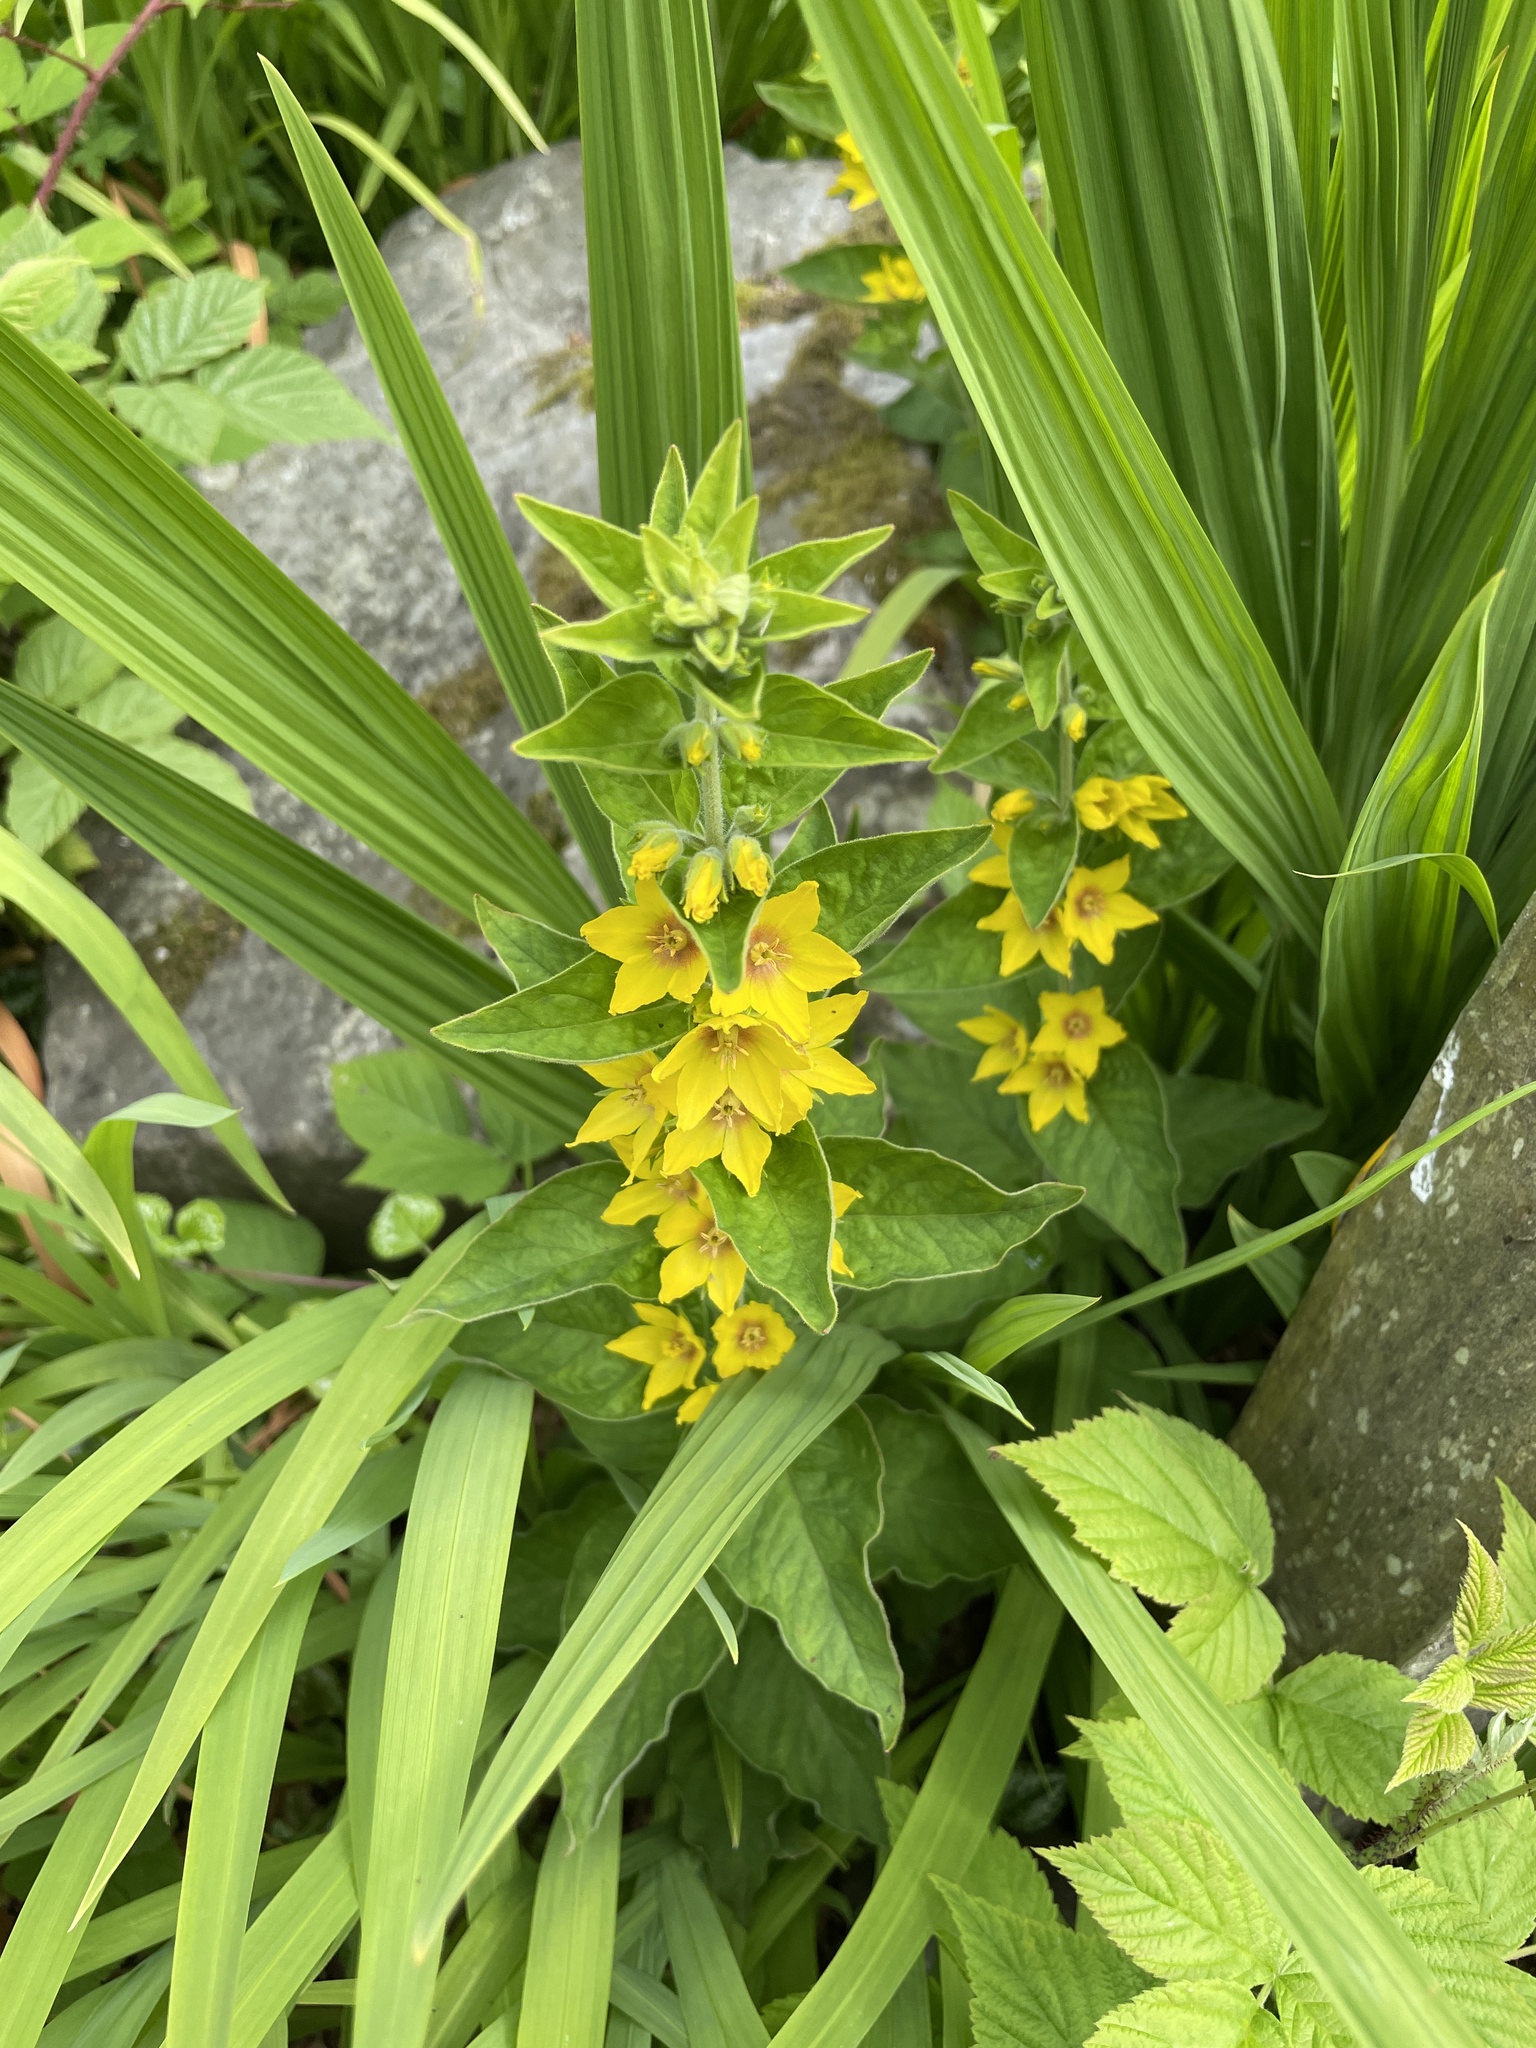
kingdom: Plantae
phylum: Tracheophyta
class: Magnoliopsida
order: Ericales
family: Primulaceae
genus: Lysimachia
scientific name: Lysimachia punctata
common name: Dotted loosestrife
